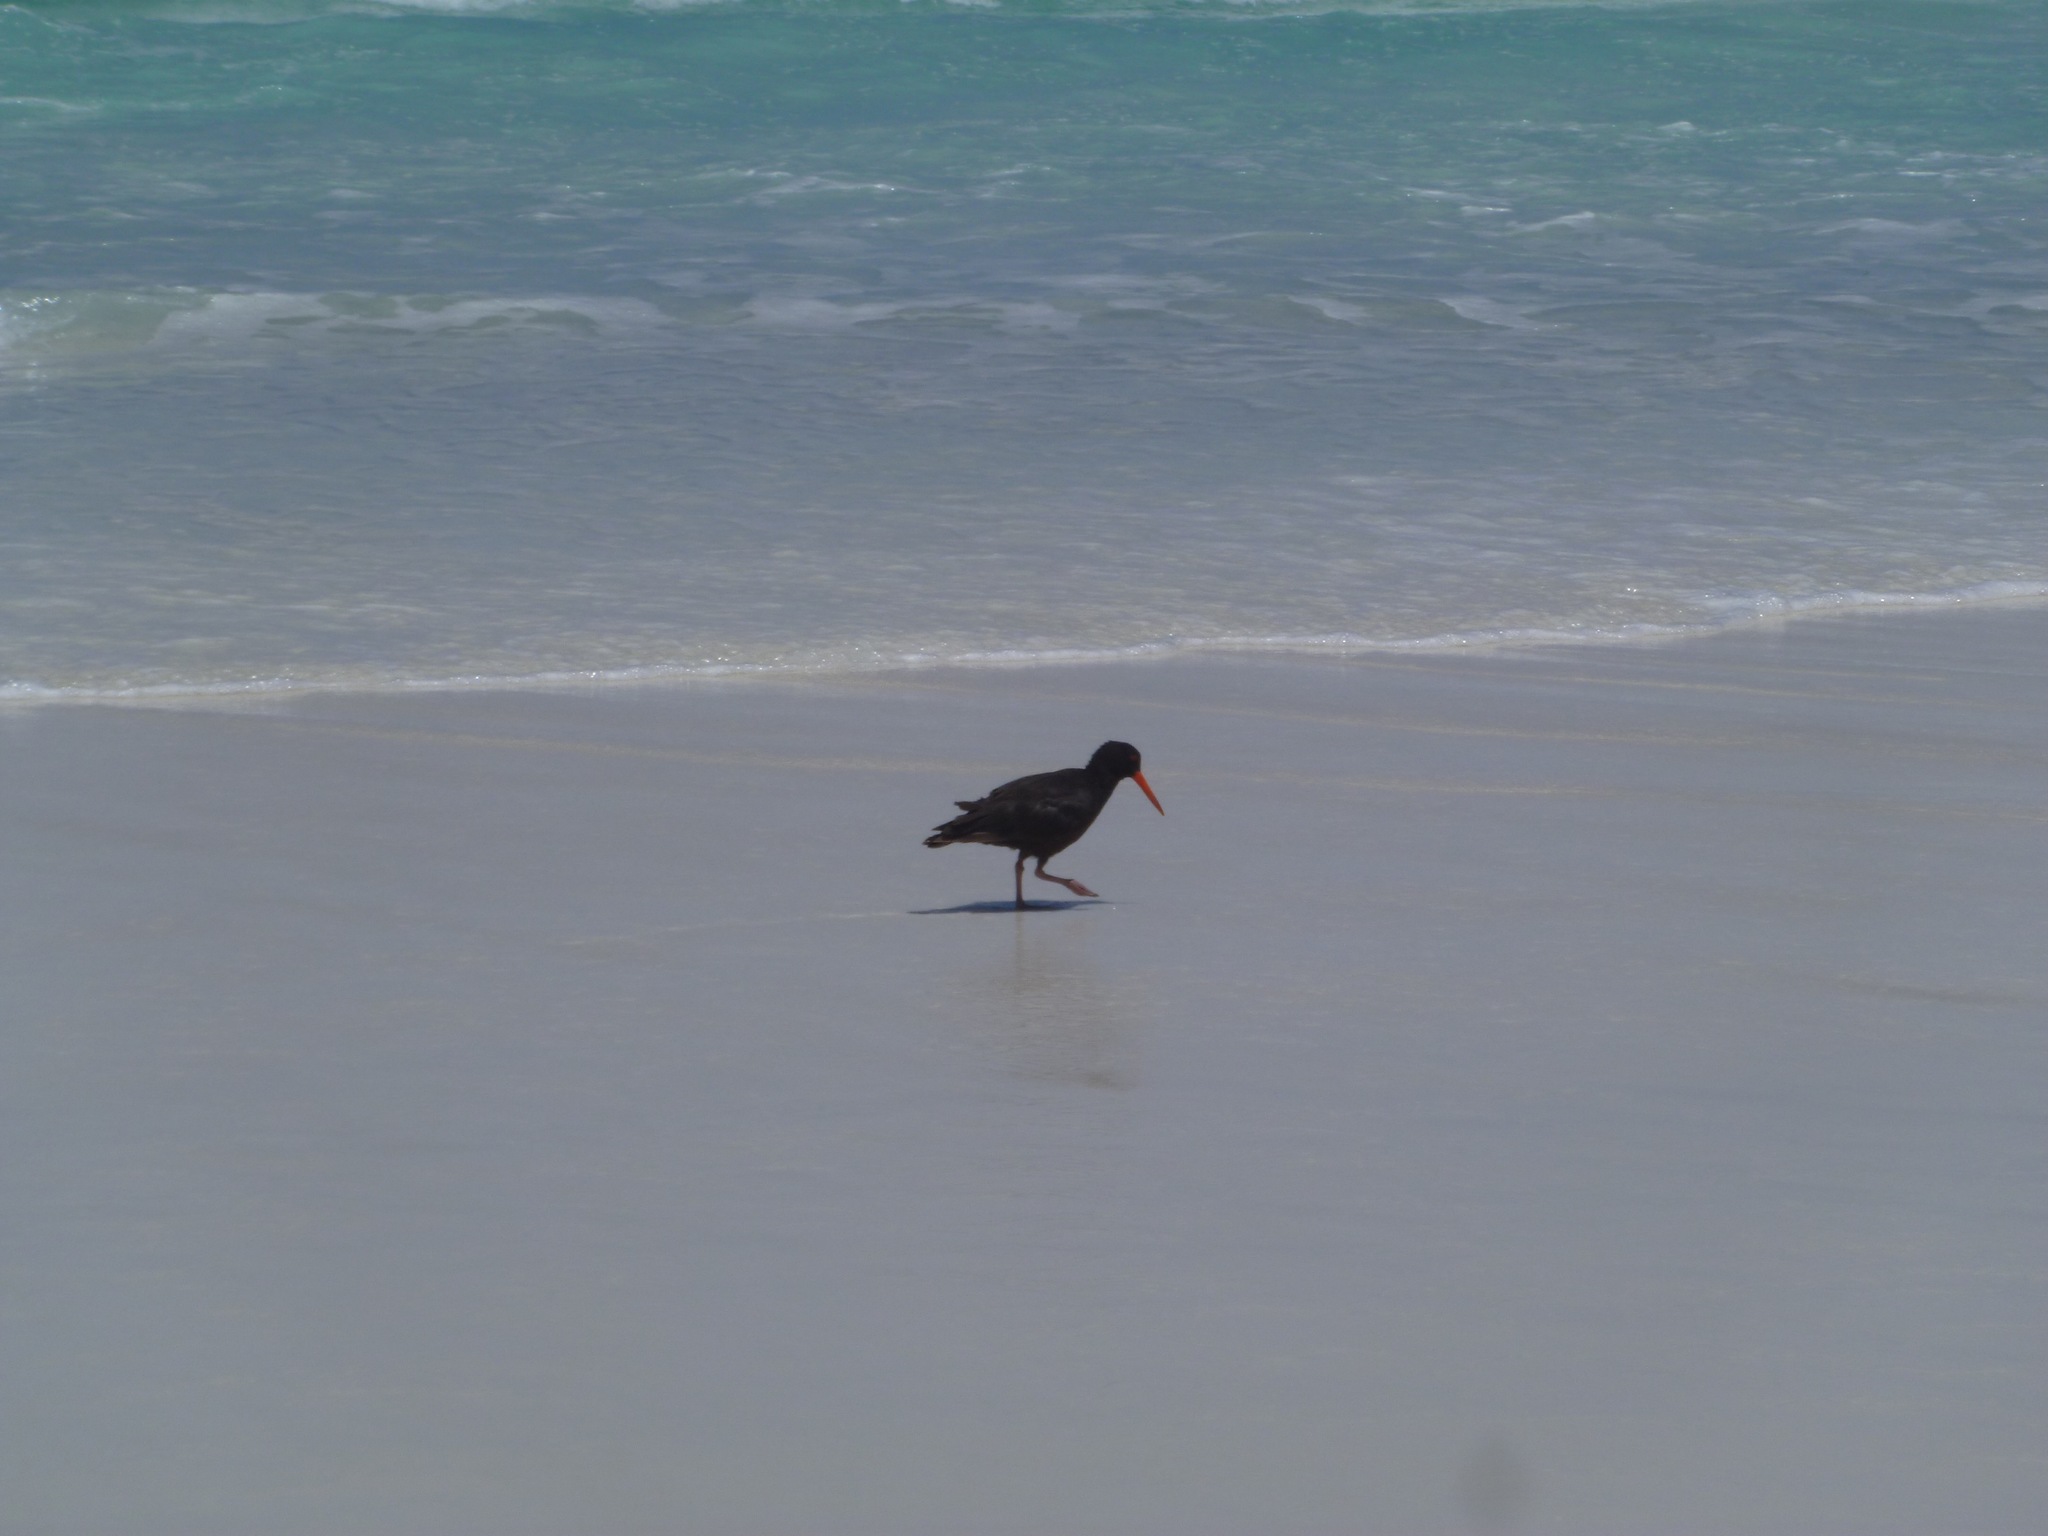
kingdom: Animalia
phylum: Chordata
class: Aves
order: Charadriiformes
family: Haematopodidae
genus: Haematopus
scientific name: Haematopus fuliginosus
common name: Sooty oystercatcher
